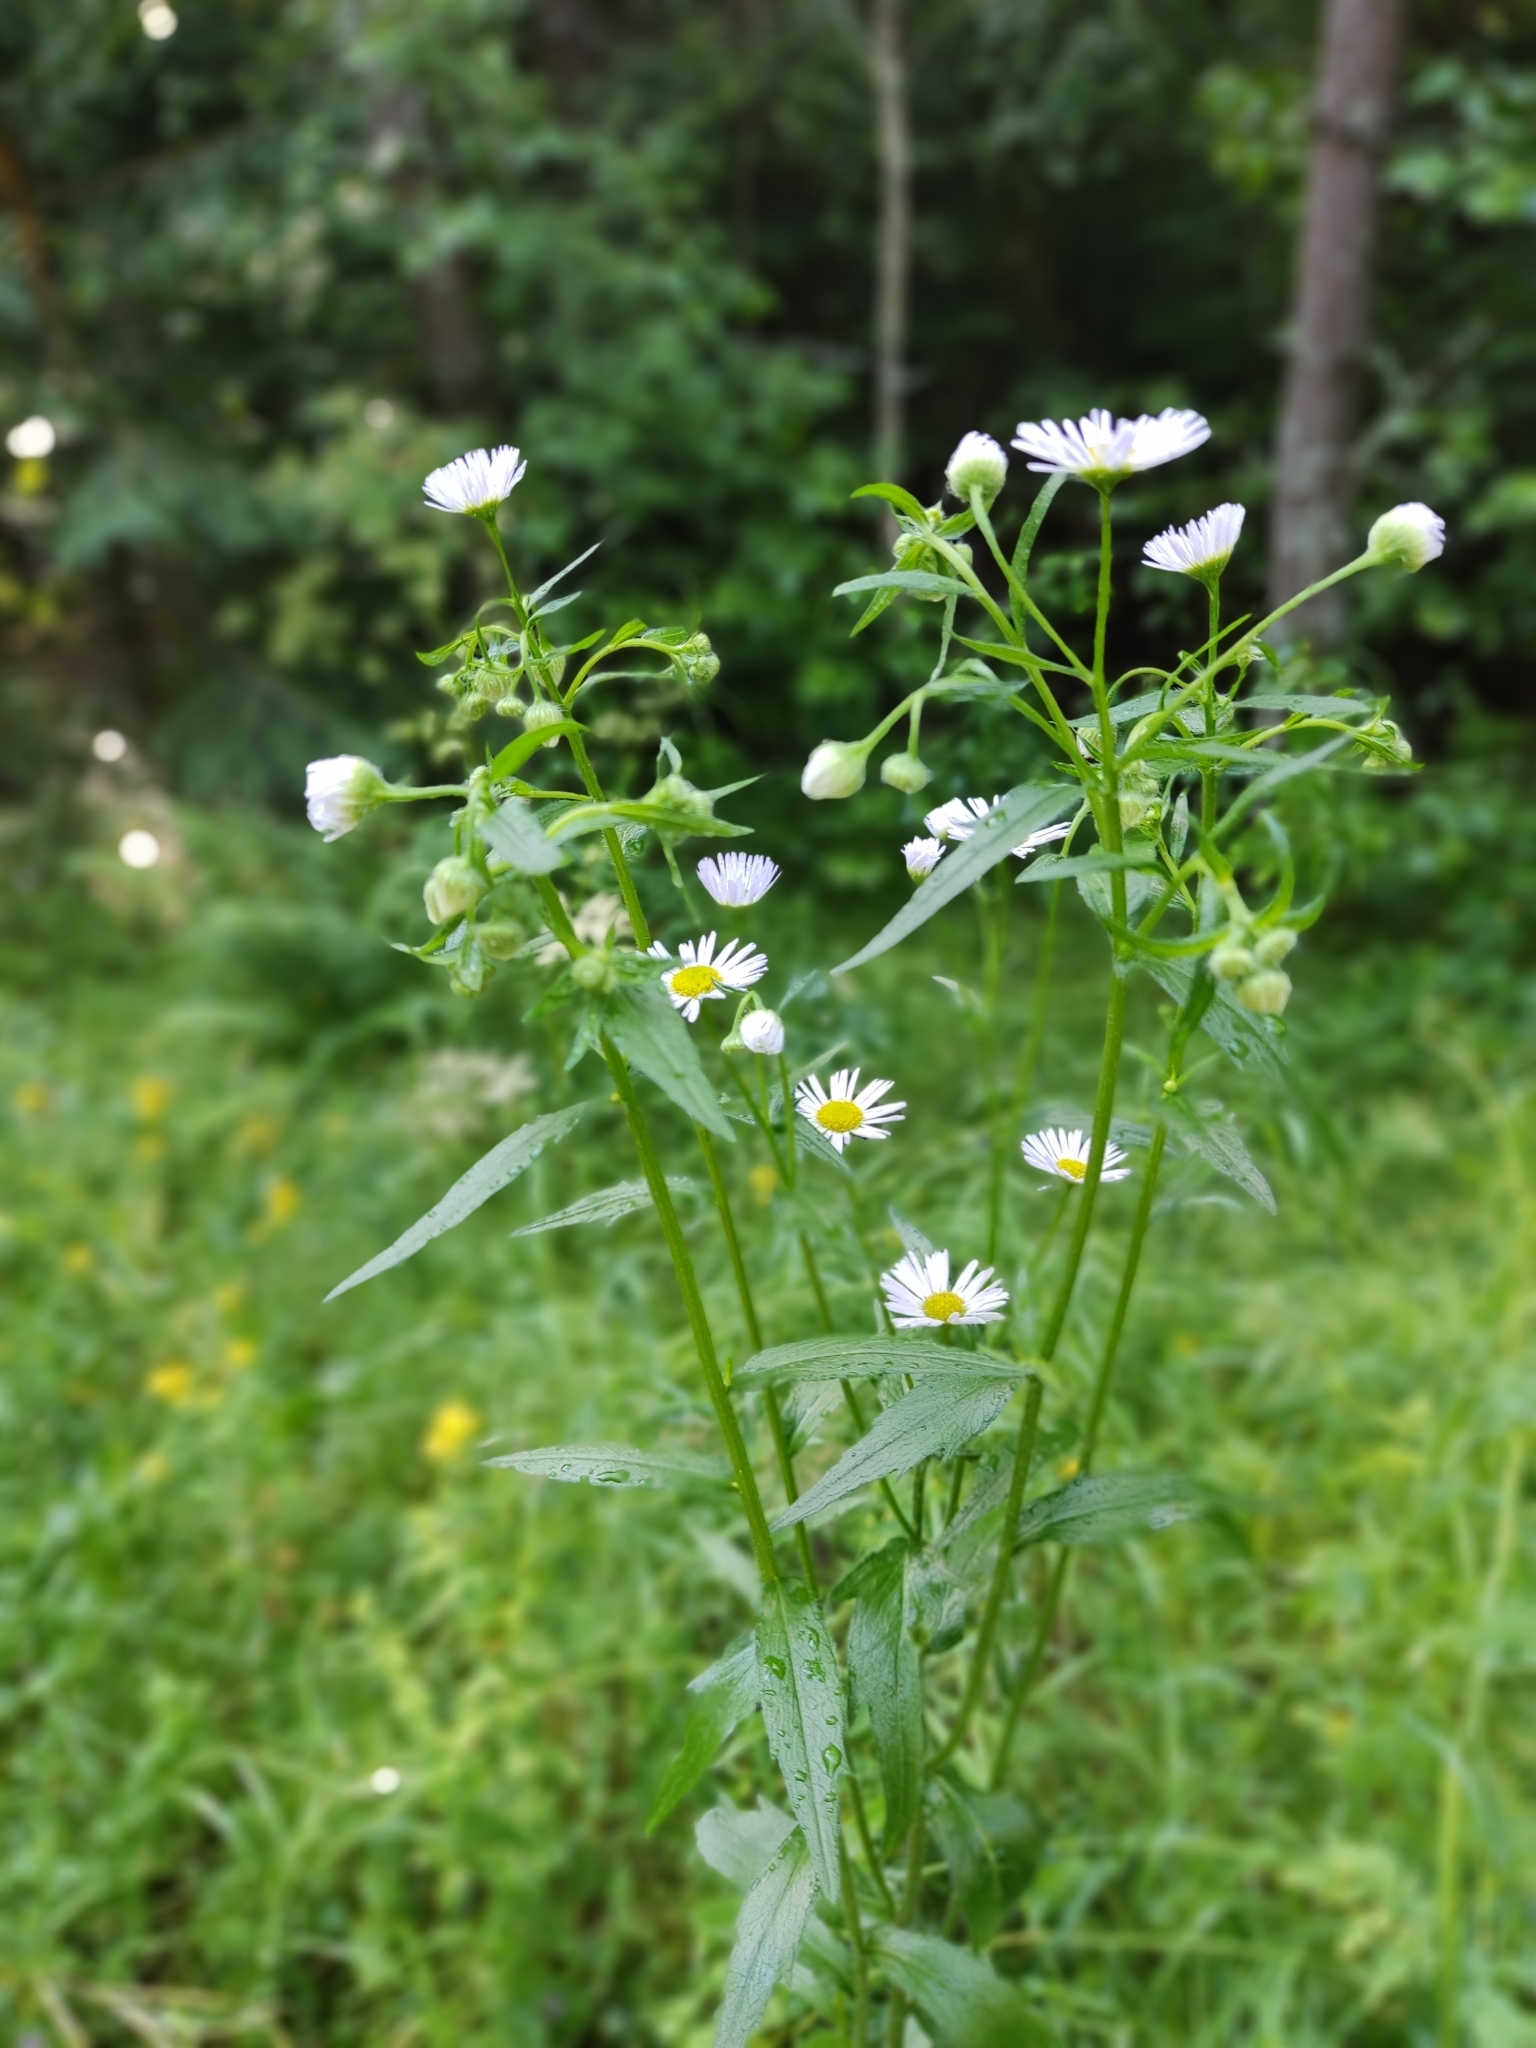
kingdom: Plantae
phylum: Tracheophyta
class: Magnoliopsida
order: Asterales
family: Asteraceae
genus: Erigeron
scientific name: Erigeron annuus
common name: Tall fleabane
